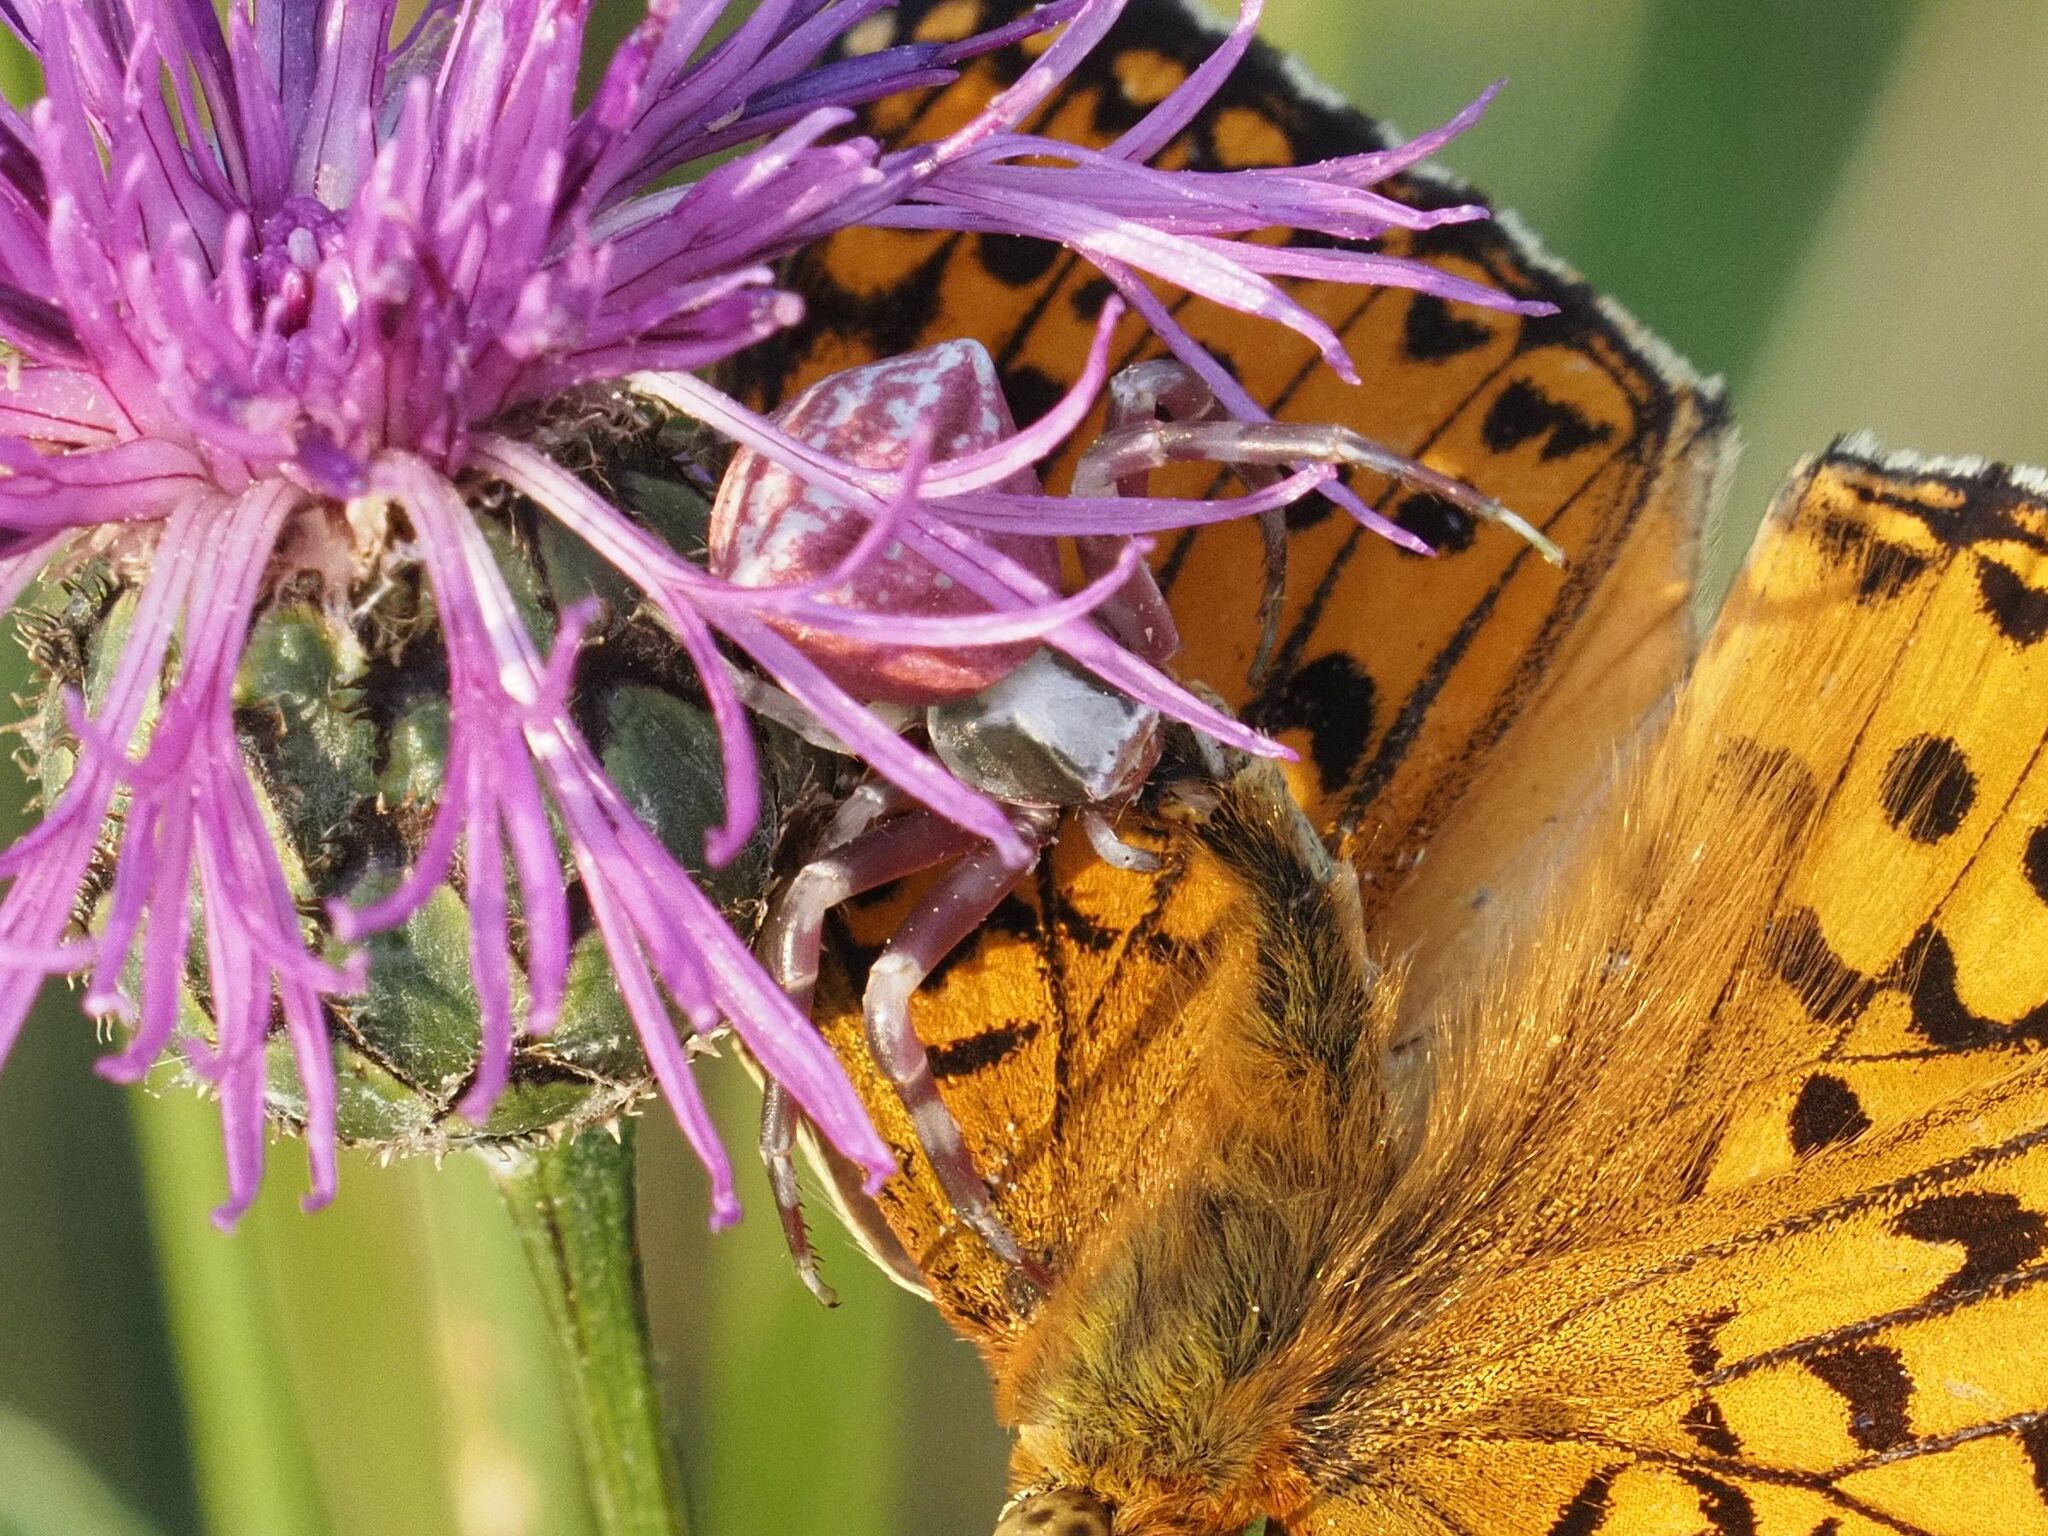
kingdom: Animalia
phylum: Arthropoda
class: Arachnida
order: Araneae
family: Thomisidae
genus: Thomisus
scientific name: Thomisus onustus
